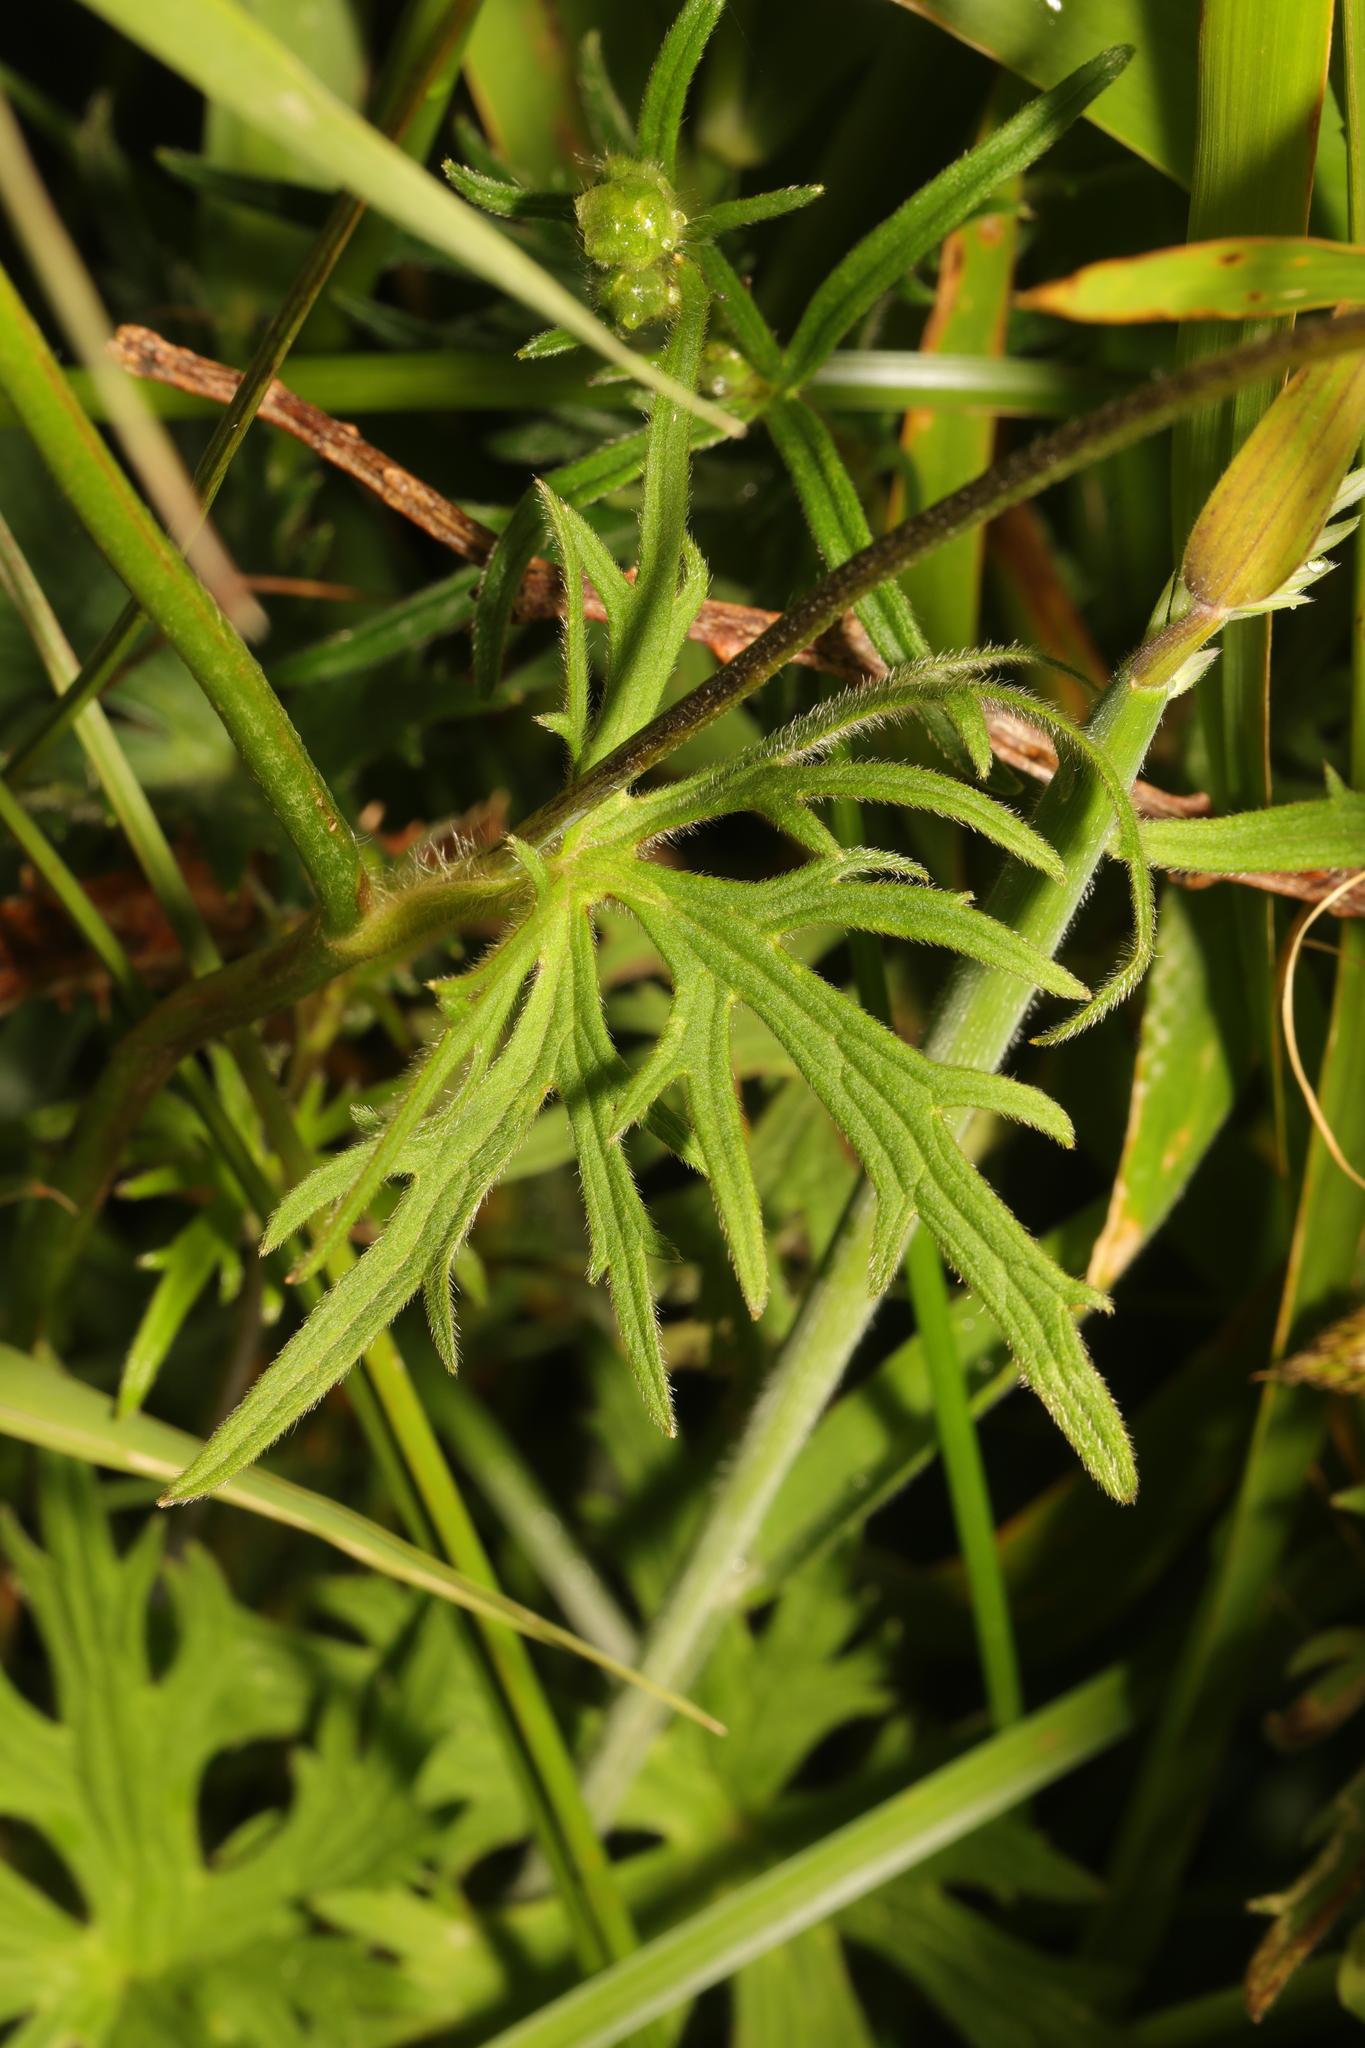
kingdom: Plantae
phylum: Tracheophyta
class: Magnoliopsida
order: Ranunculales
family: Ranunculaceae
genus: Ranunculus
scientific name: Ranunculus acris
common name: Meadow buttercup
